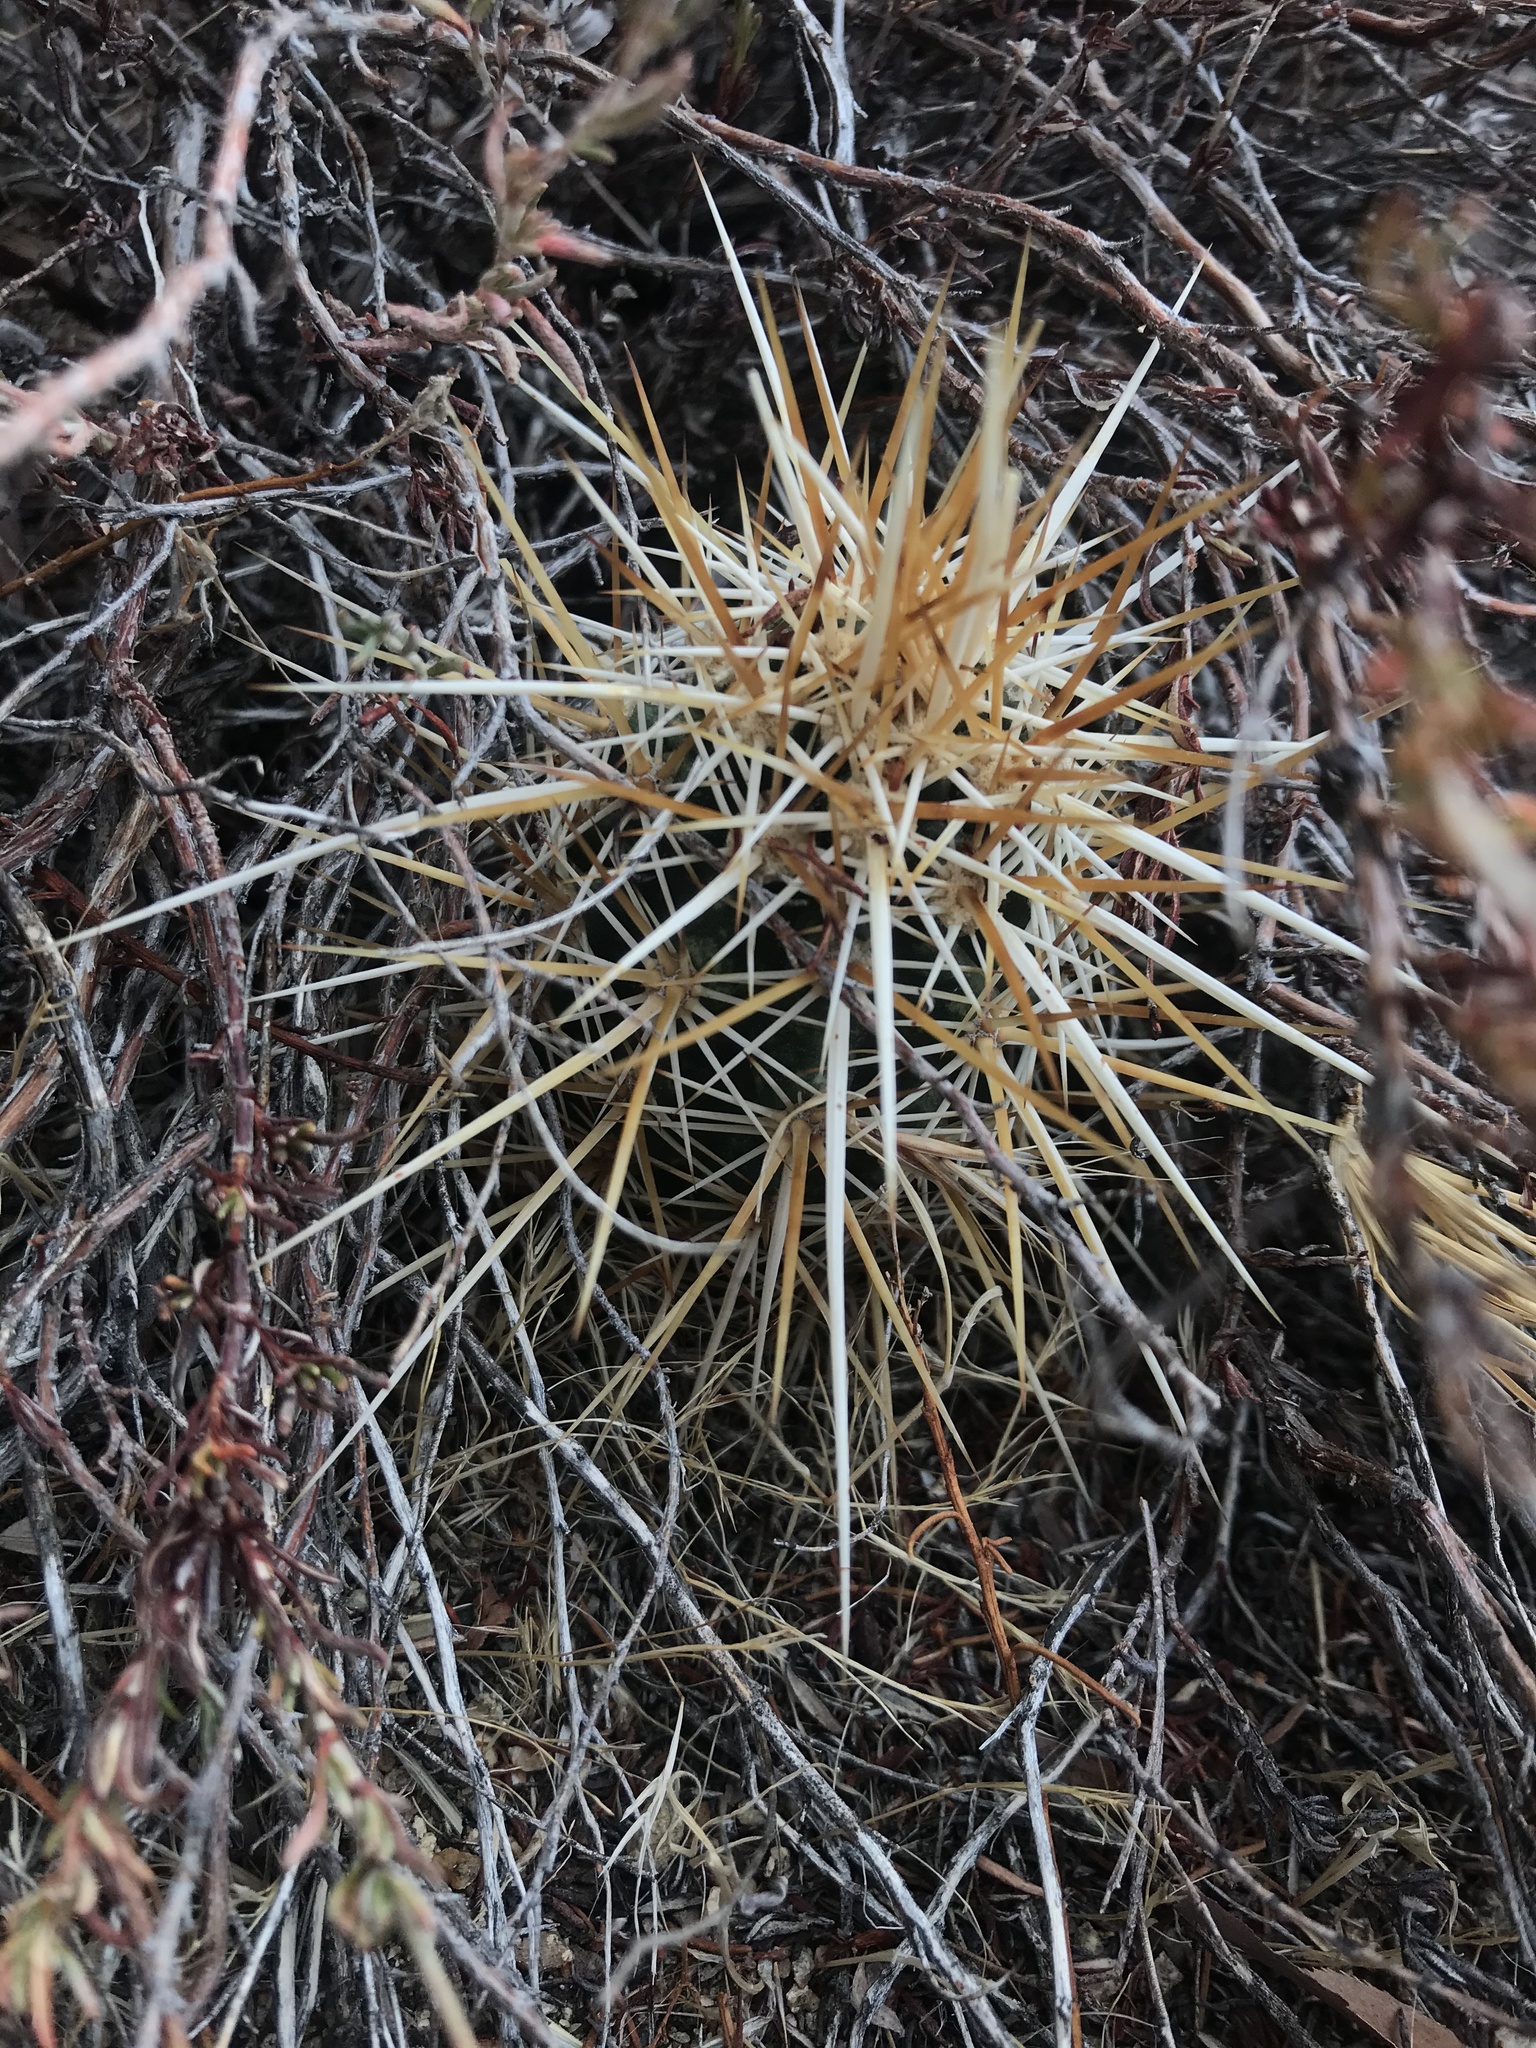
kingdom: Plantae
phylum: Tracheophyta
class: Magnoliopsida
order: Caryophyllales
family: Cactaceae
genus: Echinocereus
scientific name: Echinocereus engelmannii
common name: Engelmann's hedgehog cactus
